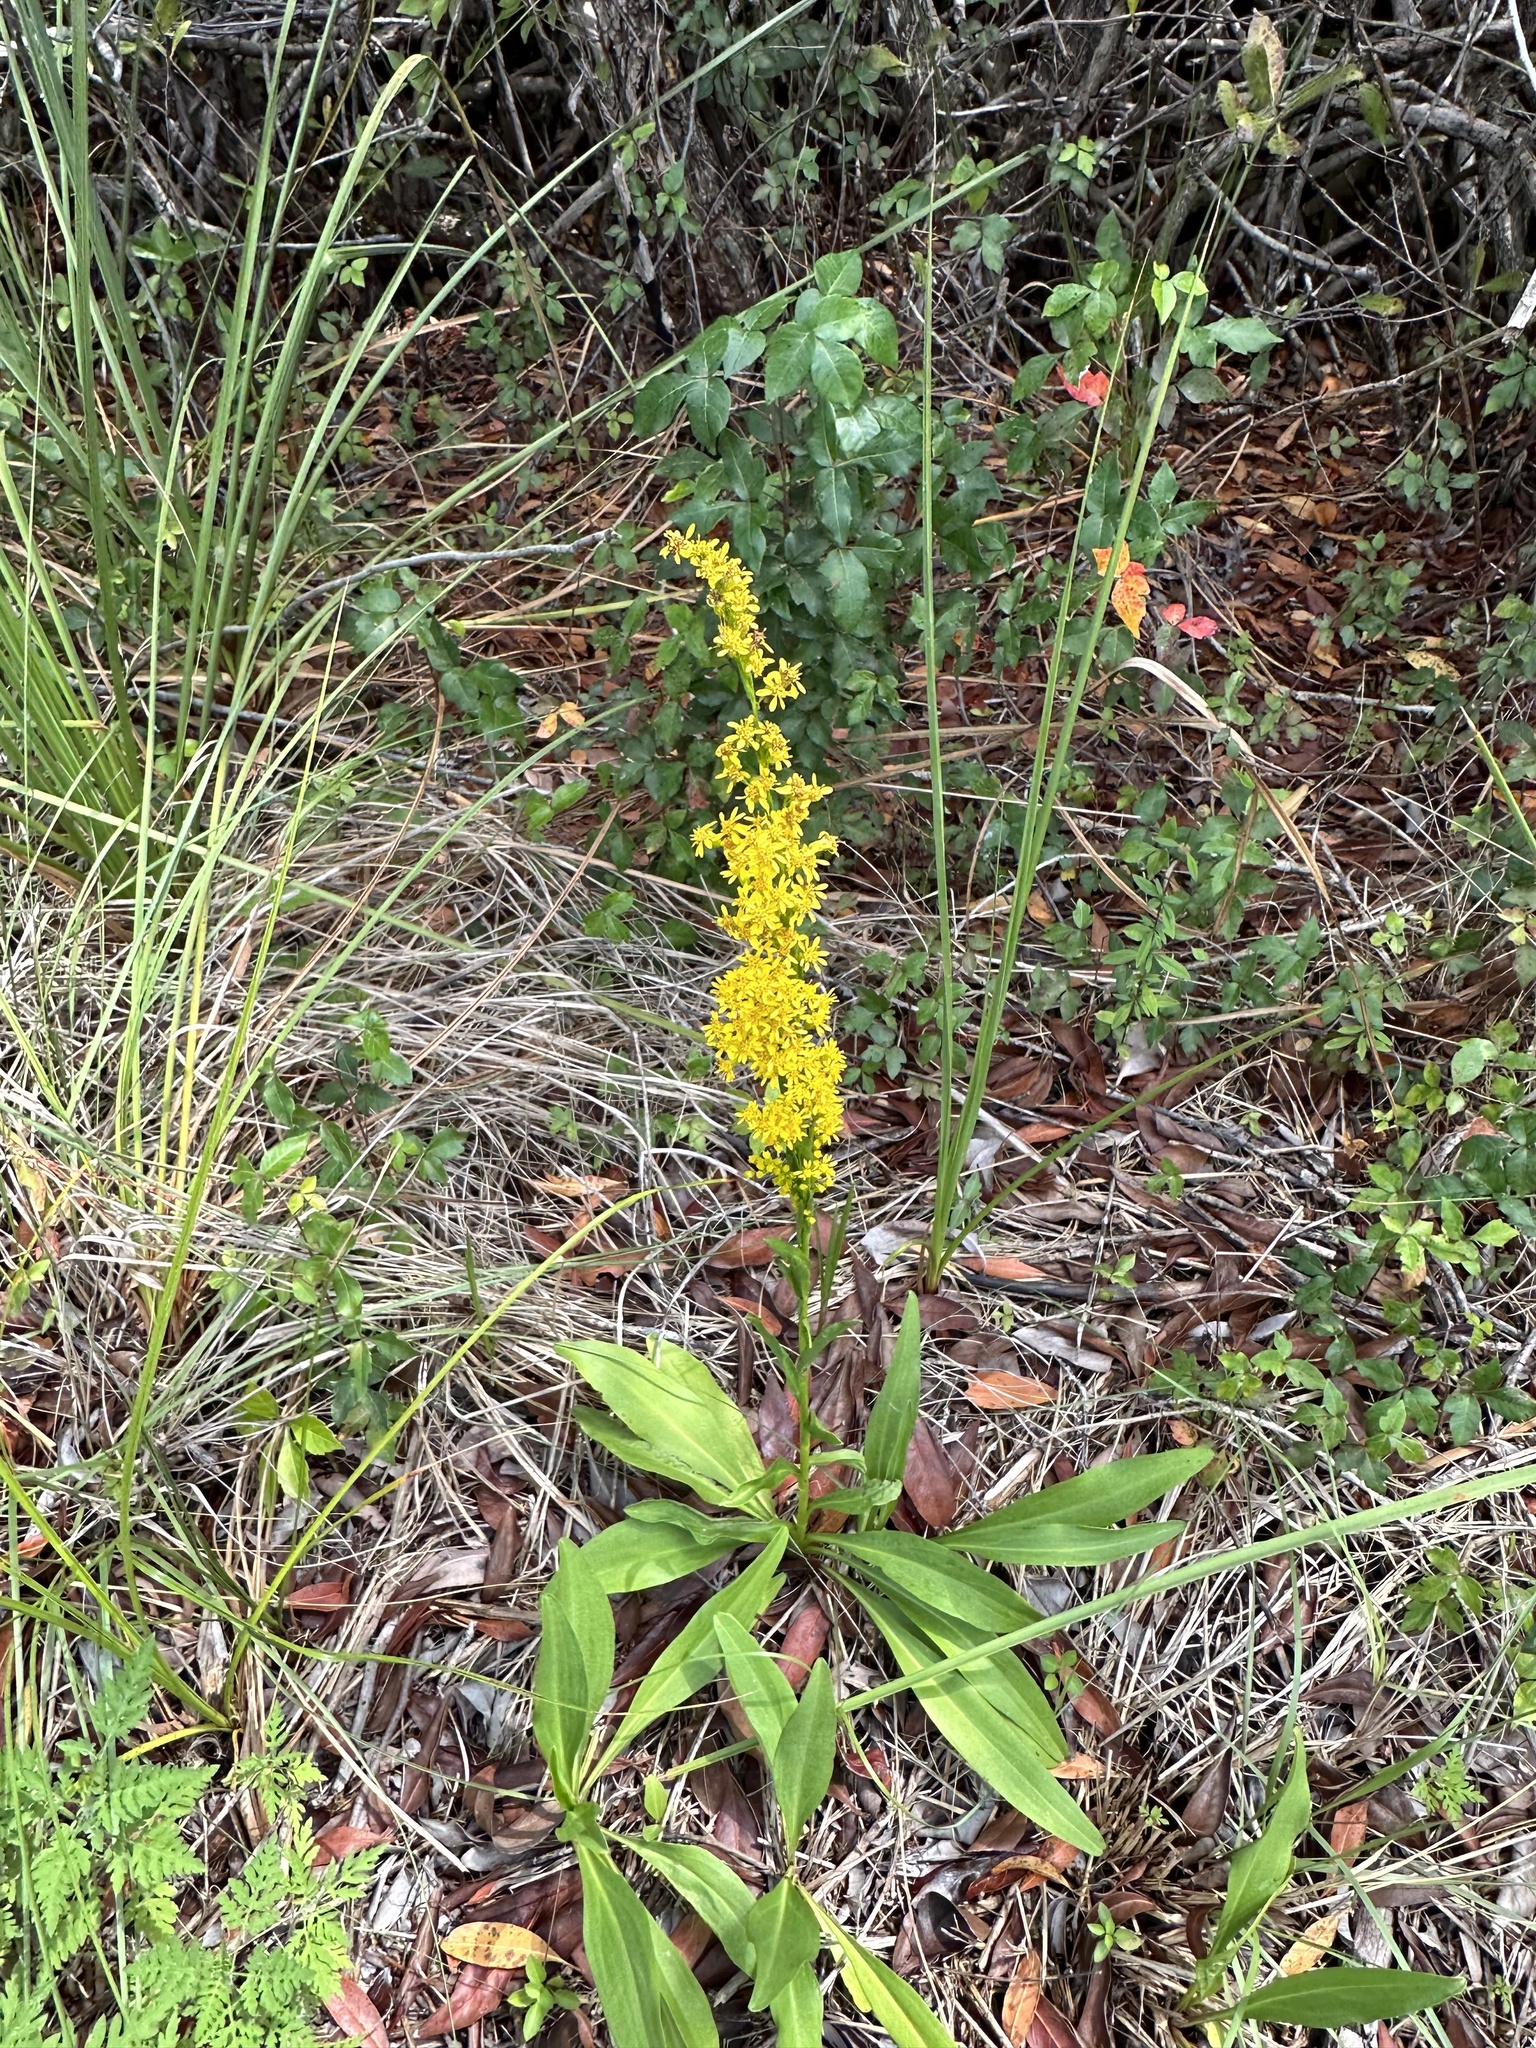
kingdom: Plantae
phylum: Tracheophyta
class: Magnoliopsida
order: Asterales
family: Asteraceae
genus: Solidago
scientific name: Solidago mexicana
